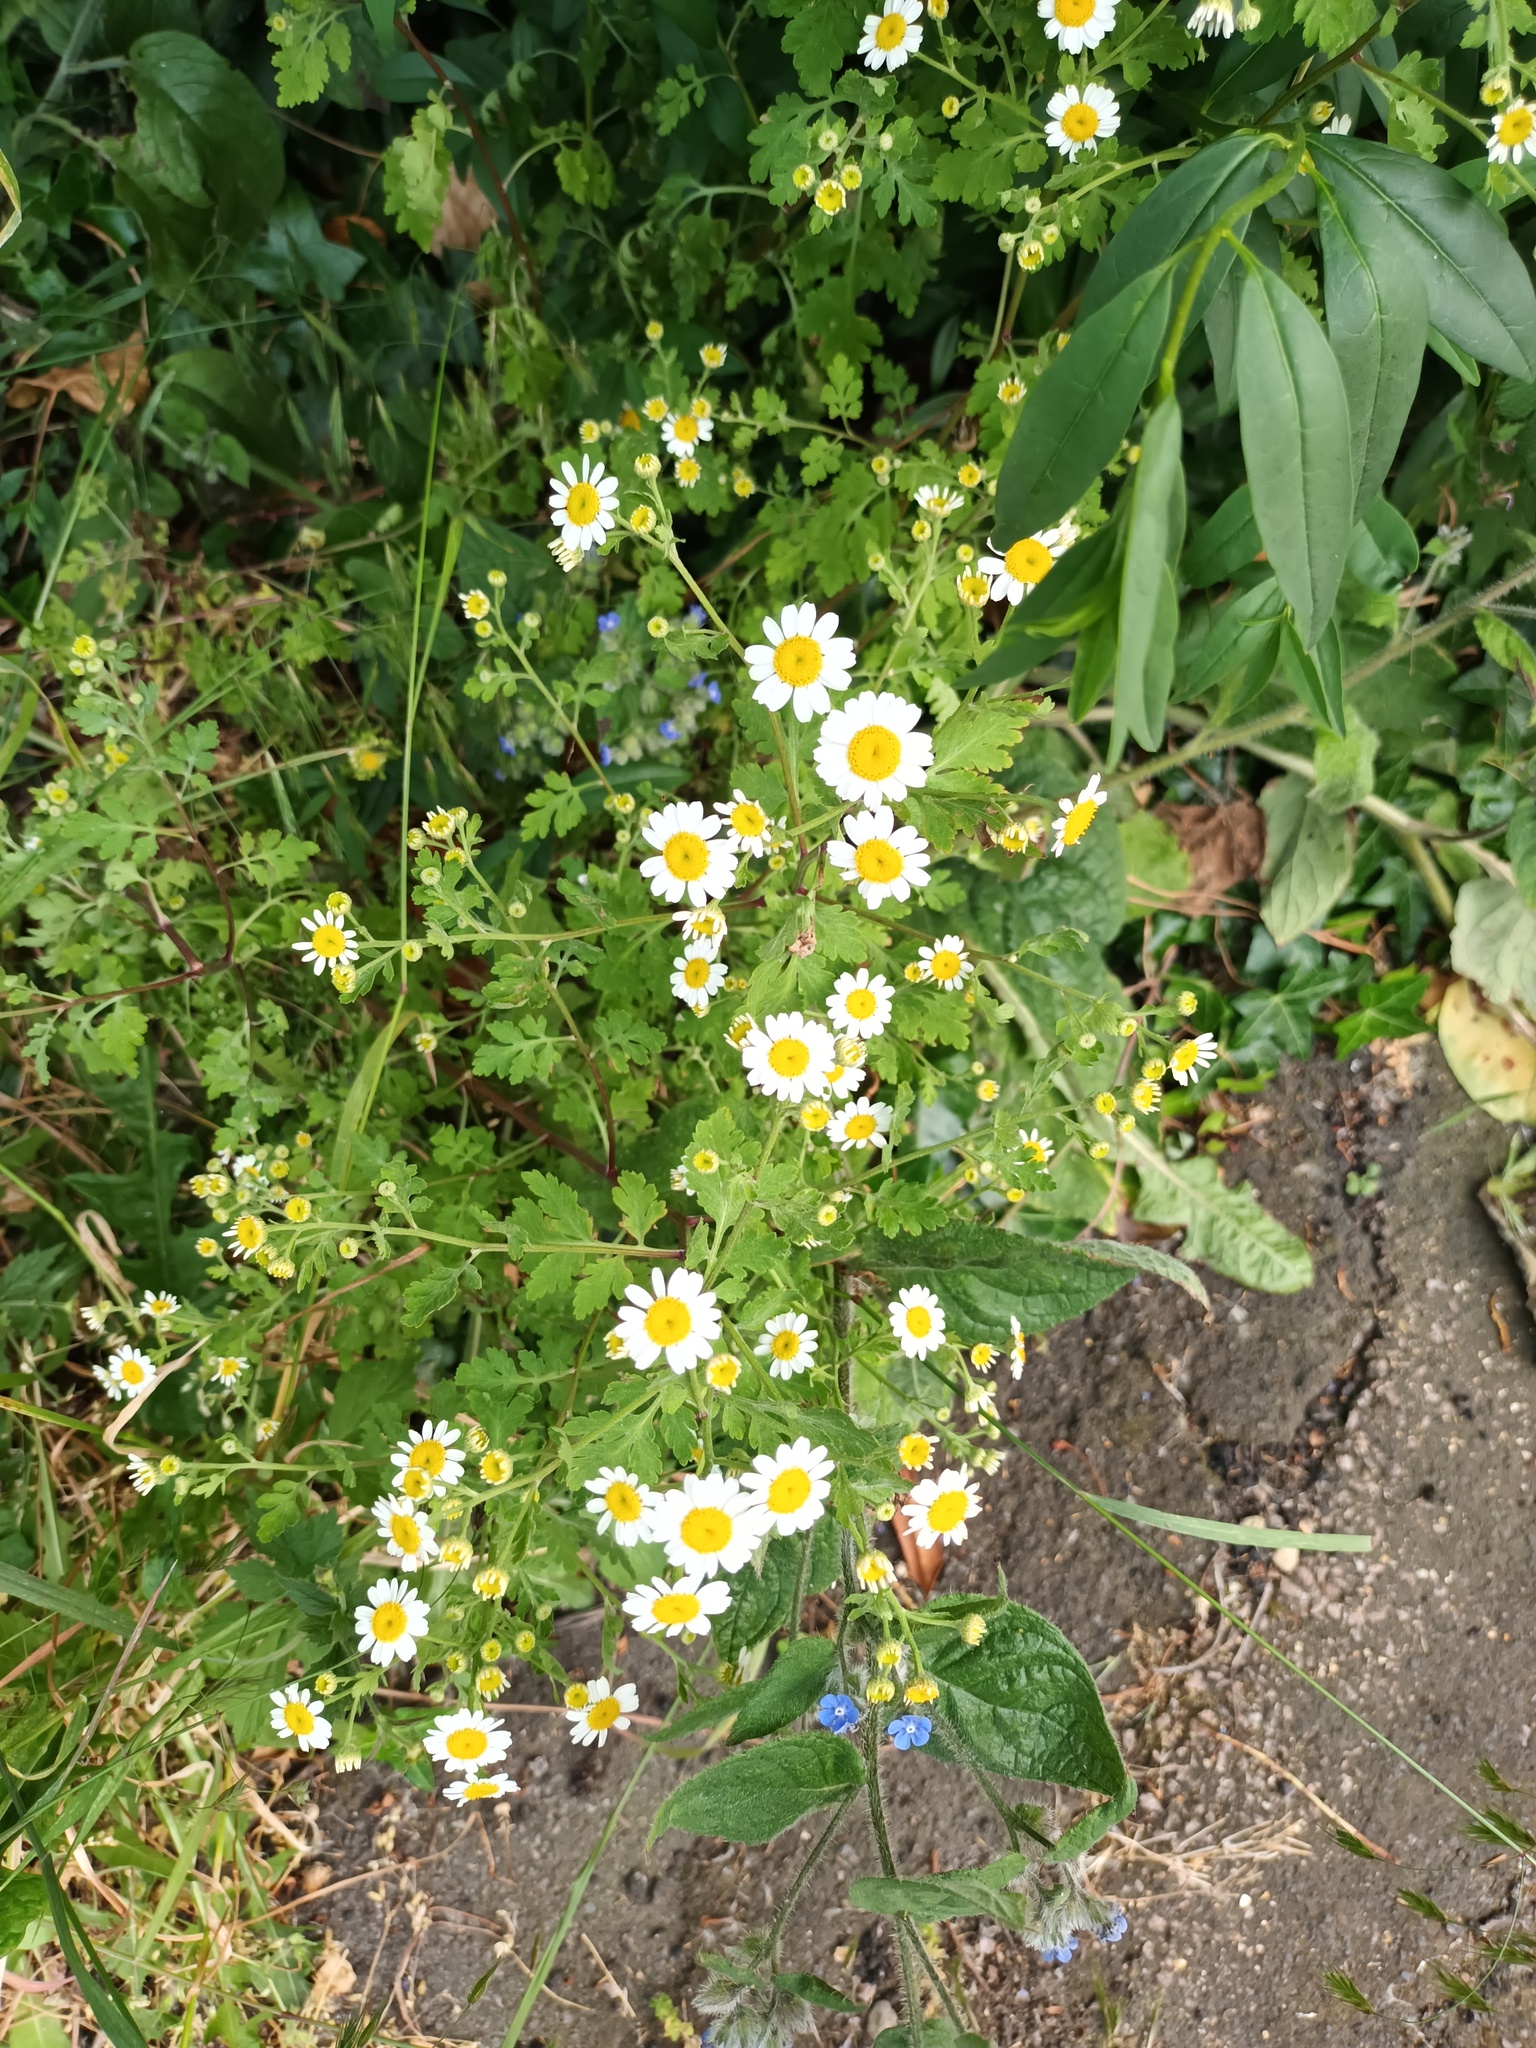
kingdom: Plantae
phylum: Tracheophyta
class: Magnoliopsida
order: Asterales
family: Asteraceae
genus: Tanacetum
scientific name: Tanacetum parthenium
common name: Feverfew
